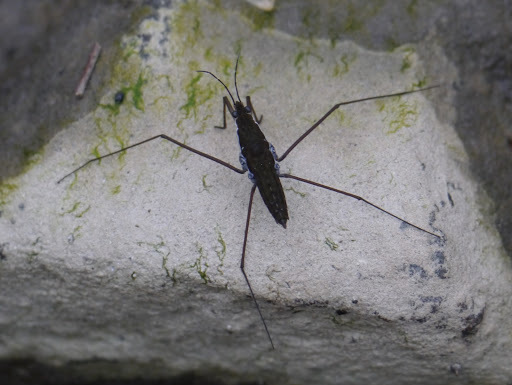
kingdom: Animalia
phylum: Arthropoda
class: Insecta
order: Hemiptera
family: Gerridae
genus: Aquarius
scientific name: Aquarius
